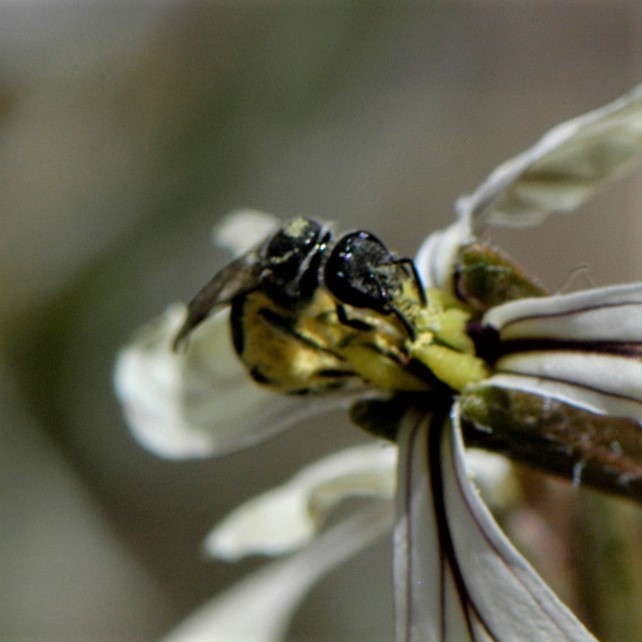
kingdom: Animalia
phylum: Arthropoda
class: Insecta
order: Hymenoptera
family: Halictidae
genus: Lasioglossum
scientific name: Lasioglossum
